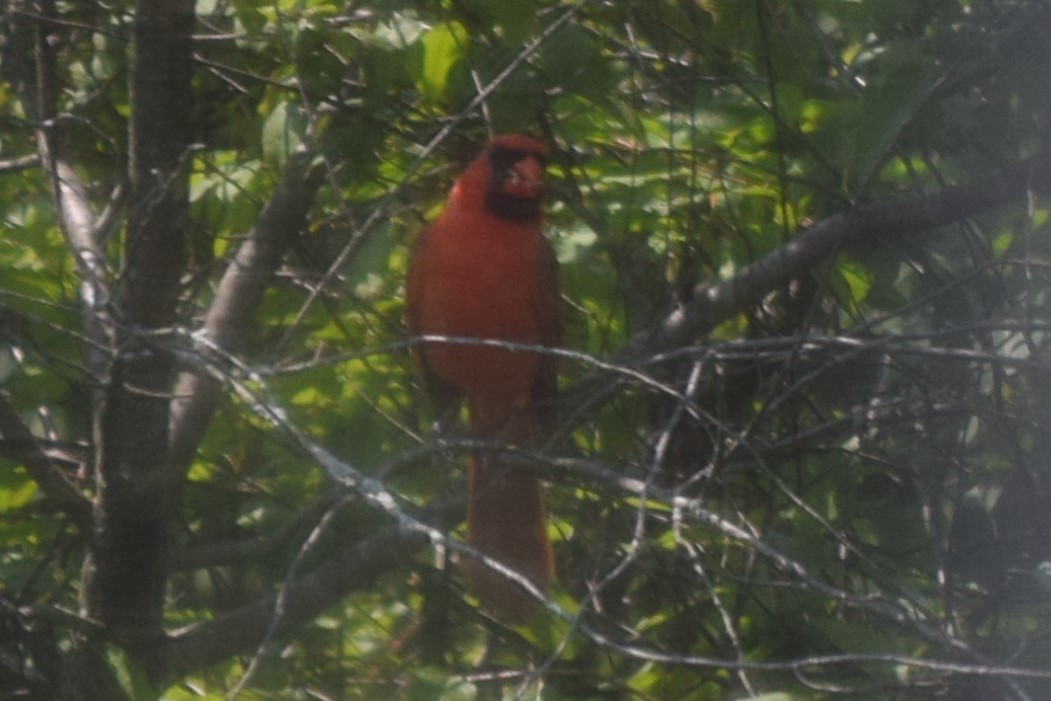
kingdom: Animalia
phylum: Chordata
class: Aves
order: Passeriformes
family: Cardinalidae
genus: Cardinalis
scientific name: Cardinalis cardinalis
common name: Northern cardinal
